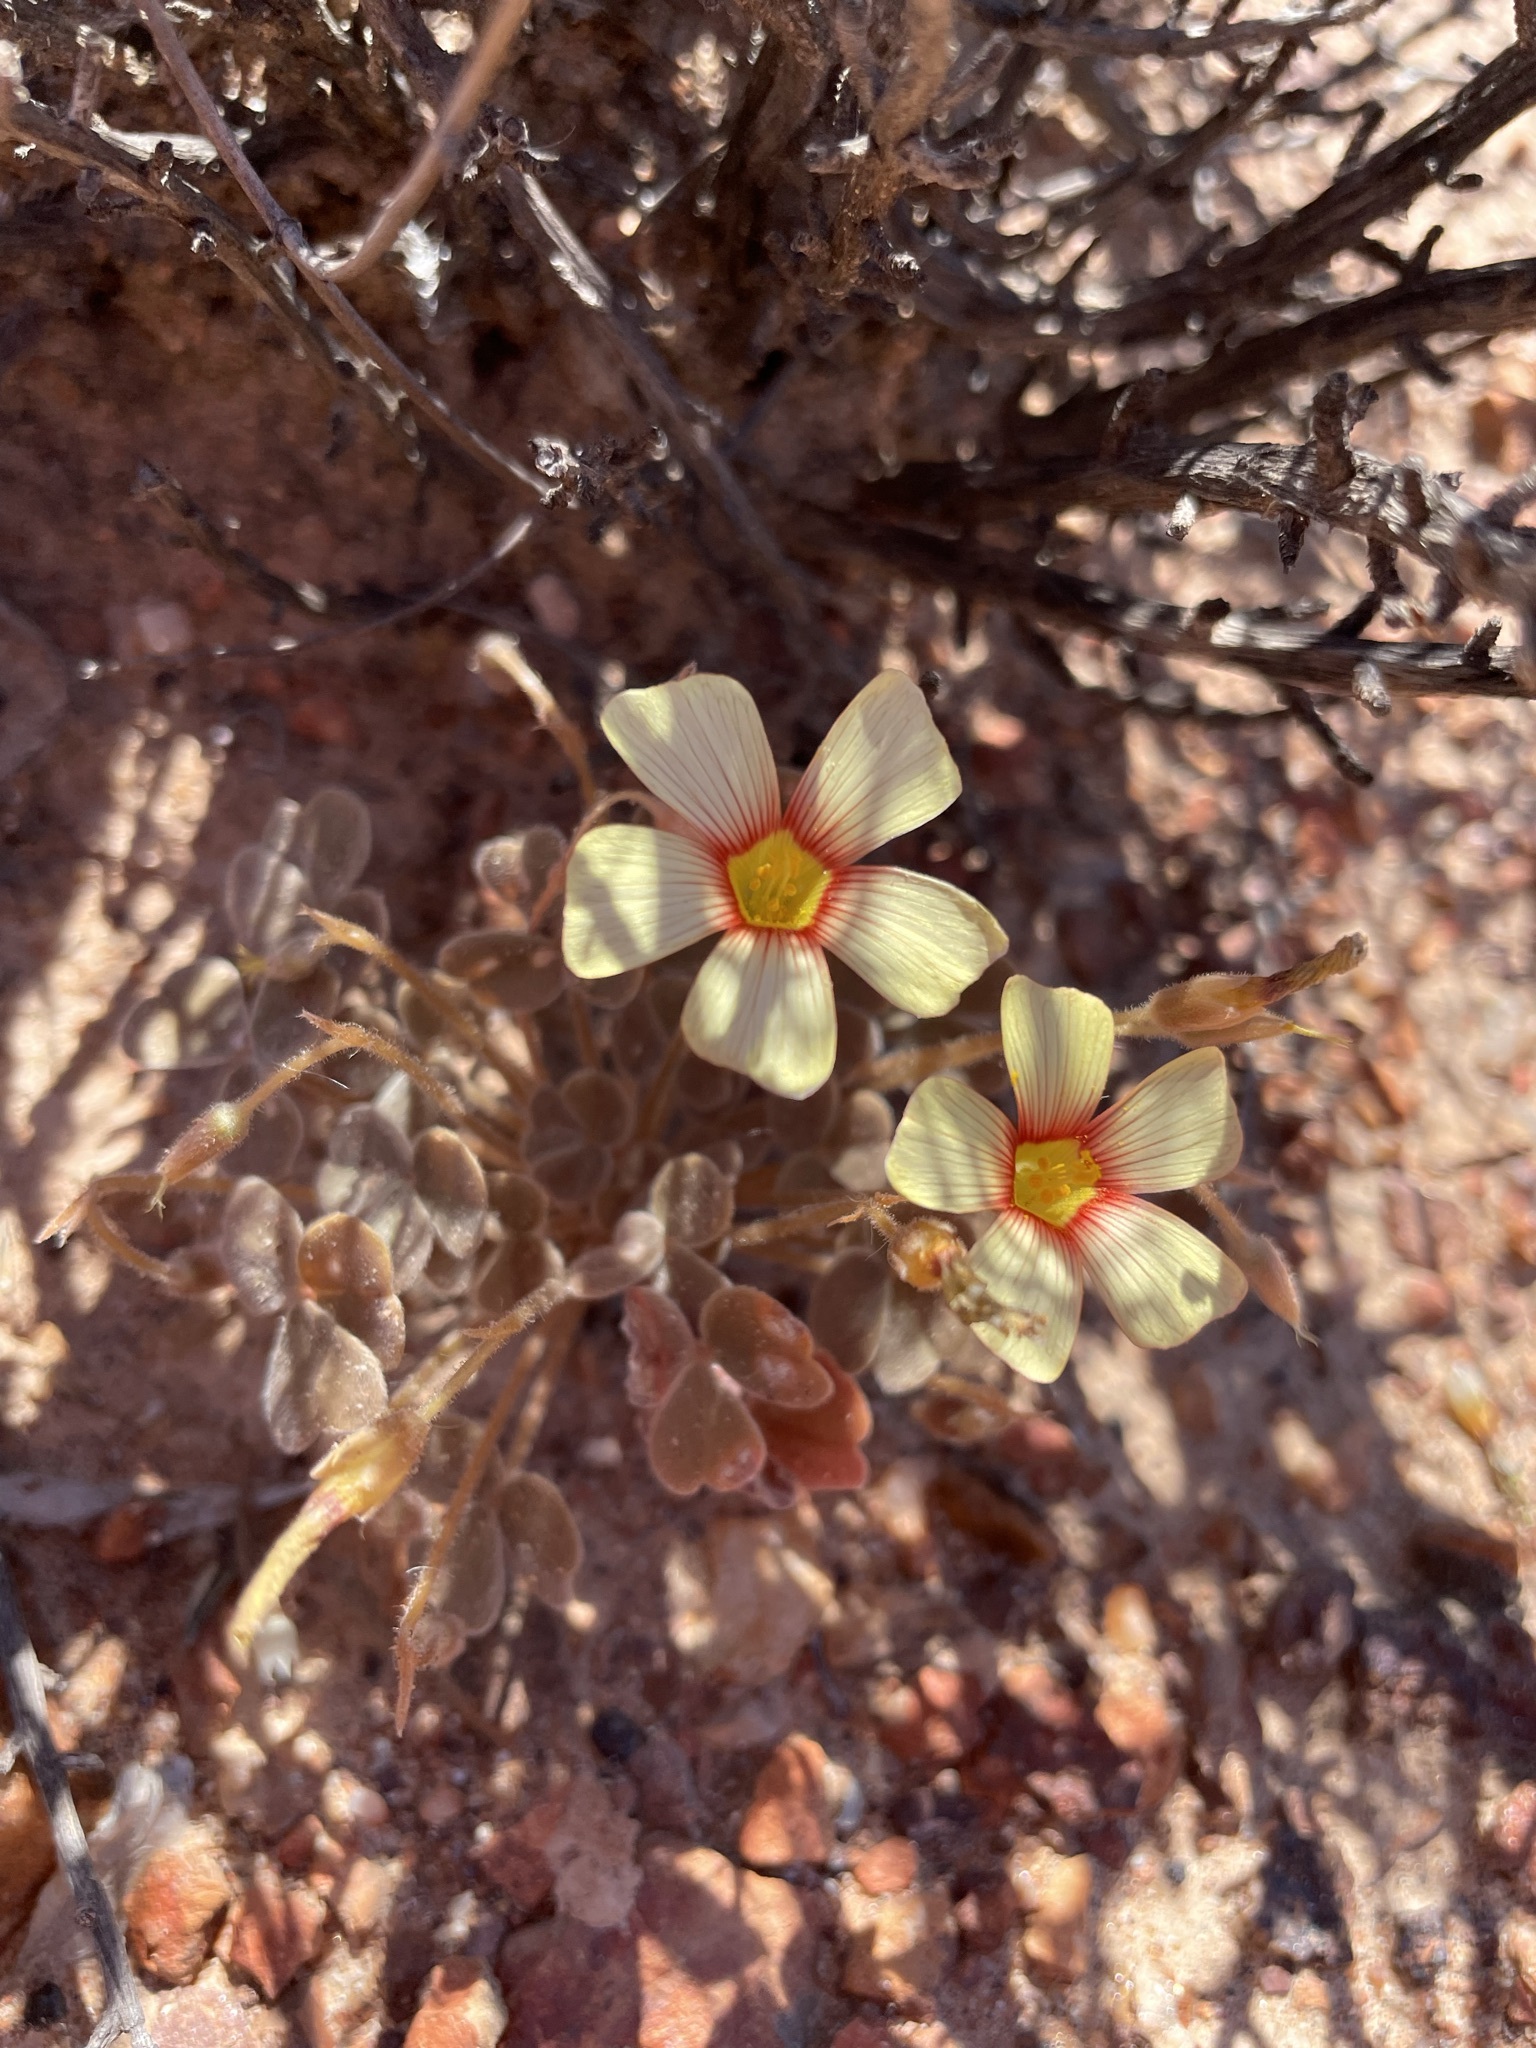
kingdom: Plantae
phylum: Tracheophyta
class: Magnoliopsida
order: Oxalidales
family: Oxalidaceae
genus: Oxalis
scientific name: Oxalis obtusa
